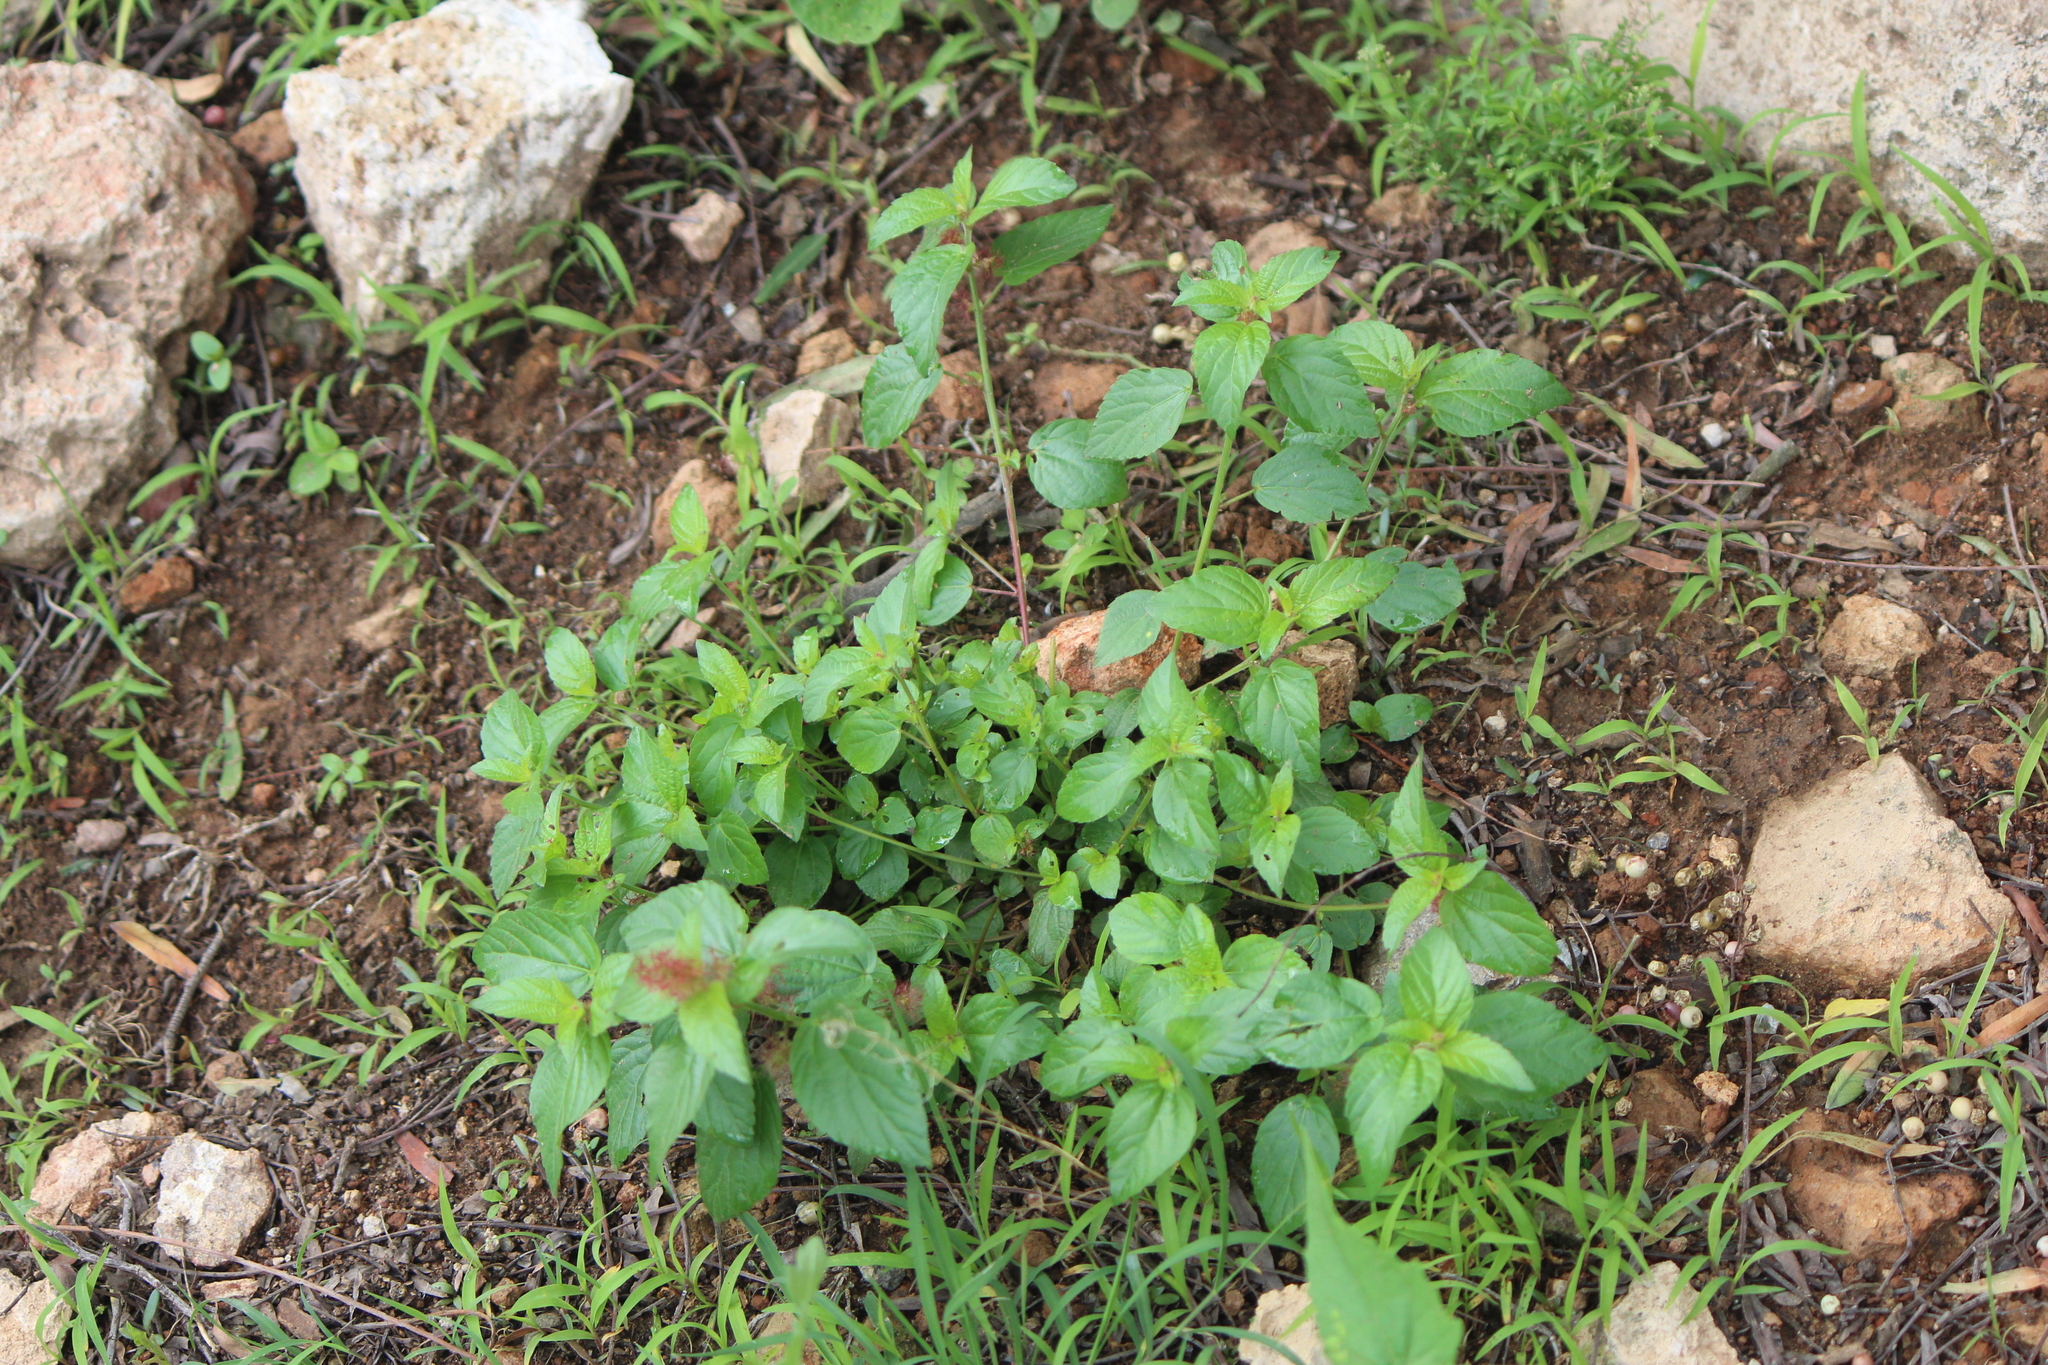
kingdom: Plantae
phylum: Tracheophyta
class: Magnoliopsida
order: Malpighiales
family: Euphorbiaceae
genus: Acalypha
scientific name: Acalypha phleoides
